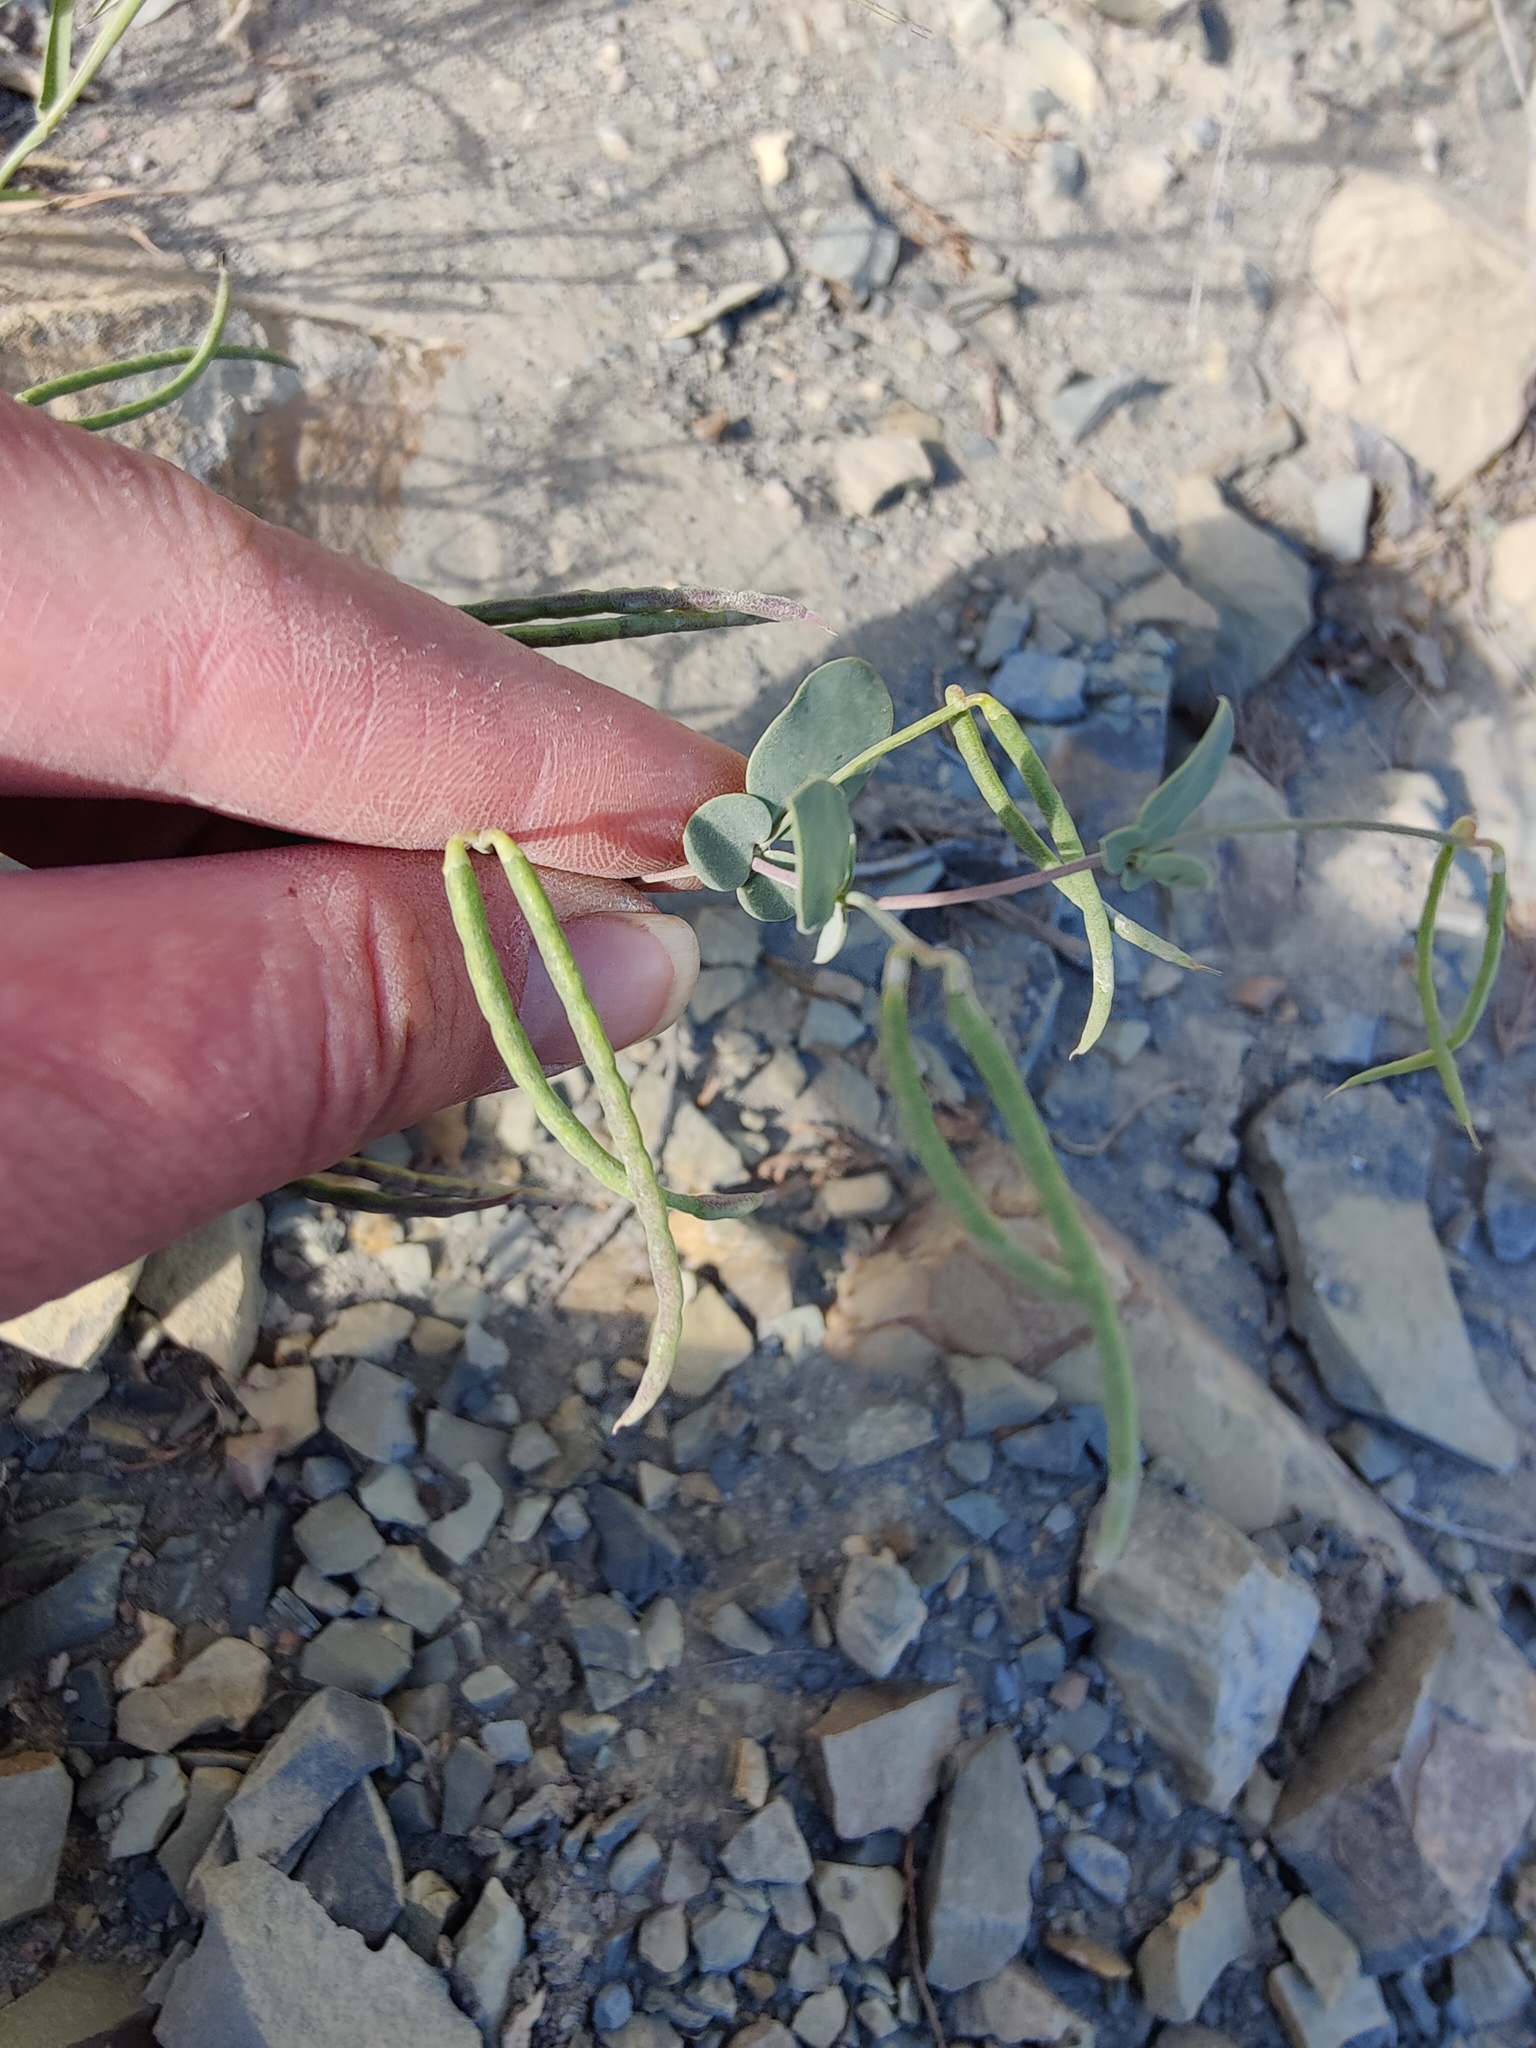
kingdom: Plantae
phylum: Tracheophyta
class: Magnoliopsida
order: Fabales
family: Fabaceae
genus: Coronilla
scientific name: Coronilla scorpioides
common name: Annual scorpion-vetch
